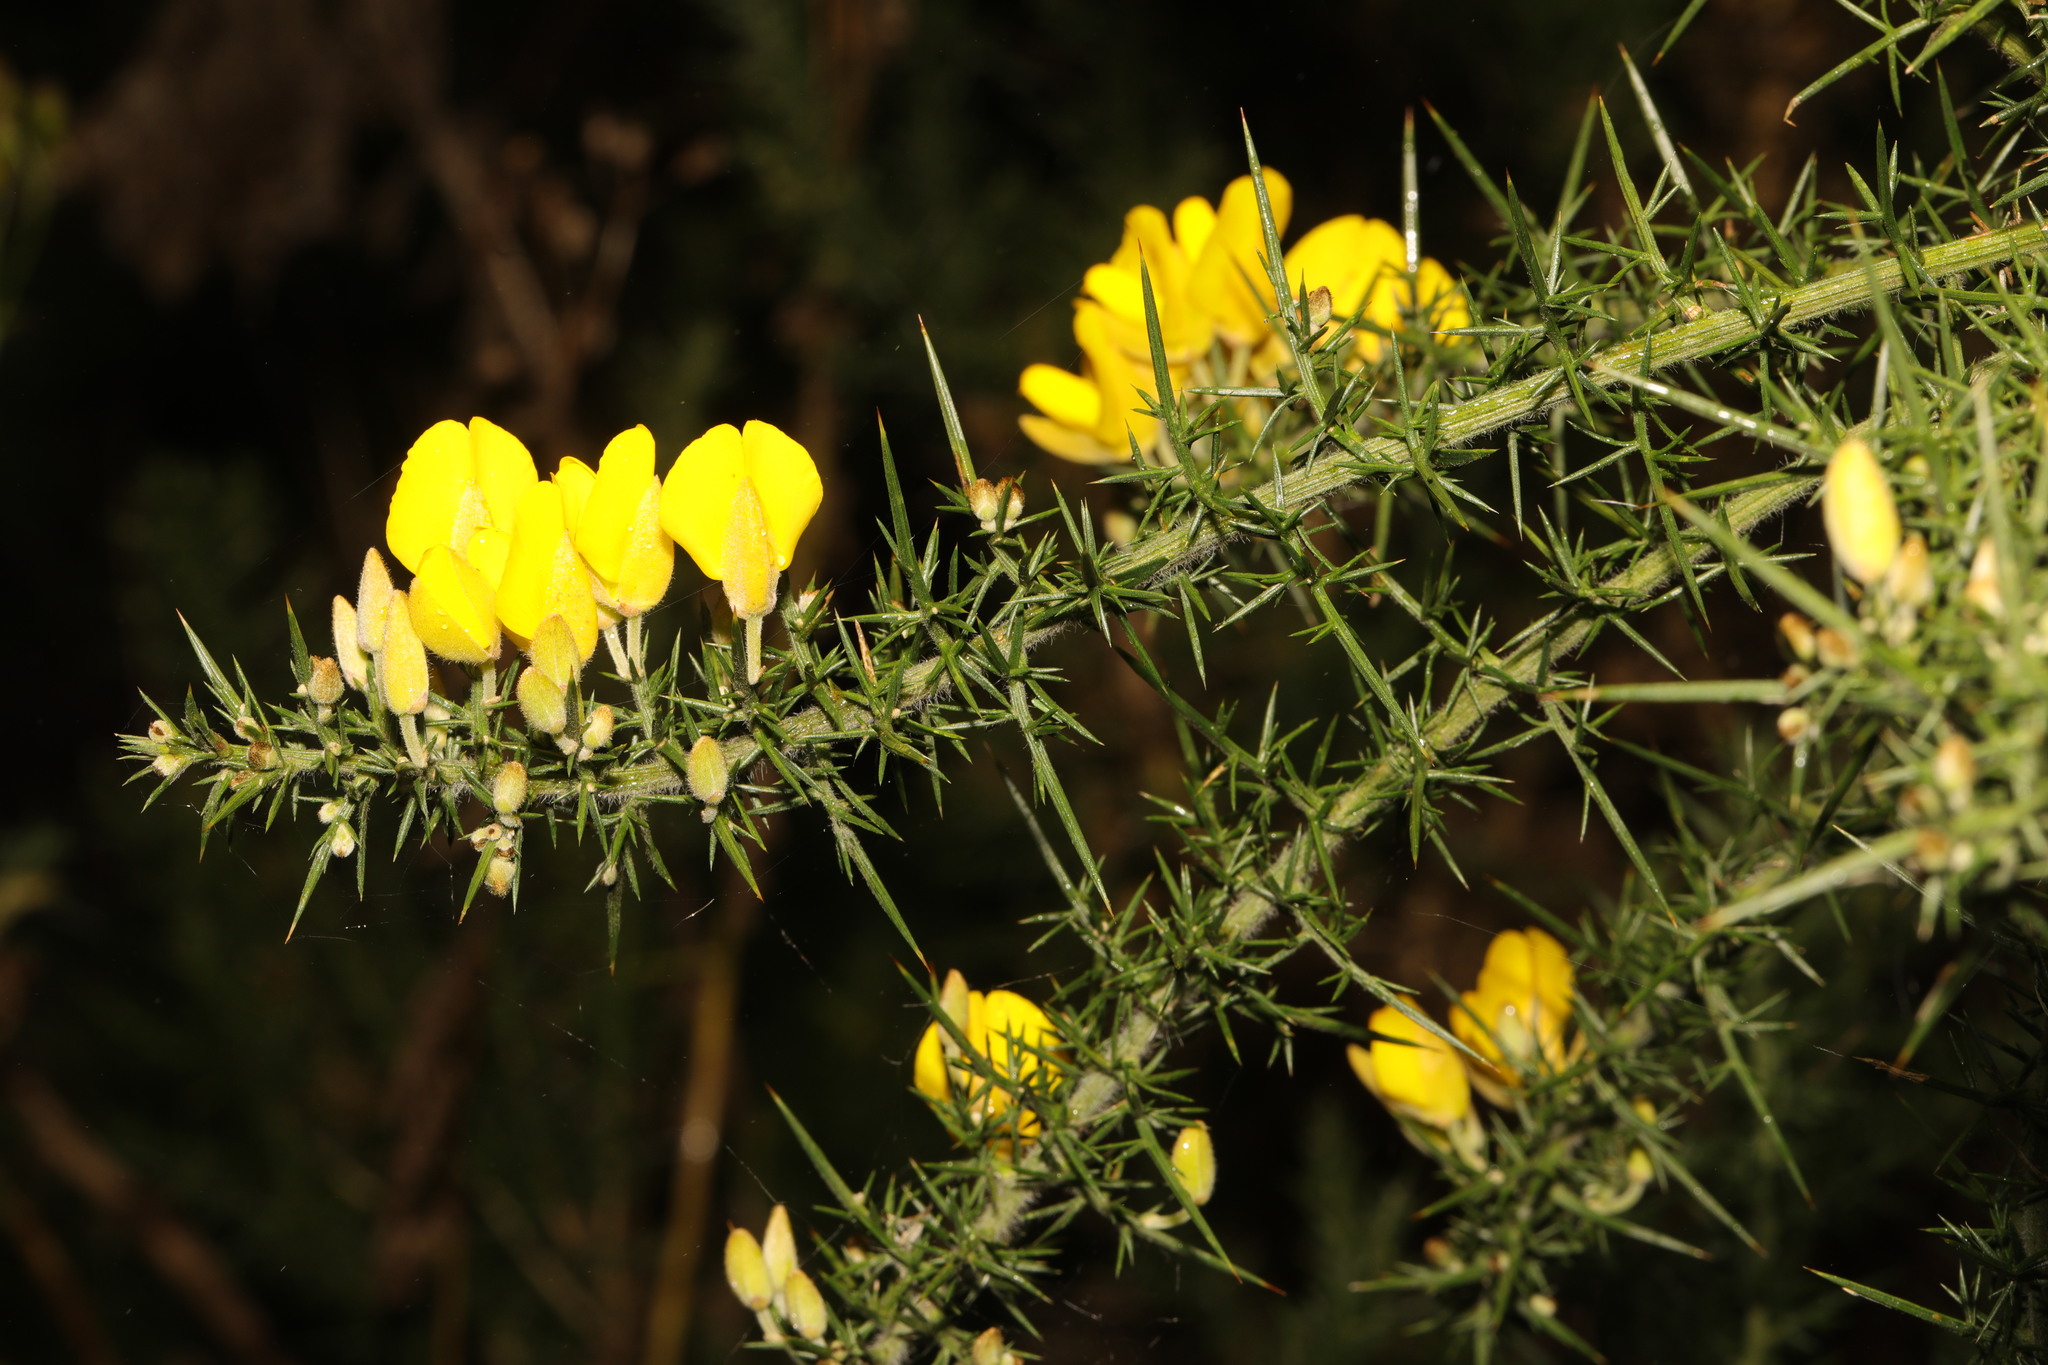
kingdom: Plantae
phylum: Tracheophyta
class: Magnoliopsida
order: Fabales
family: Fabaceae
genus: Ulex
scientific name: Ulex europaeus
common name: Common gorse
